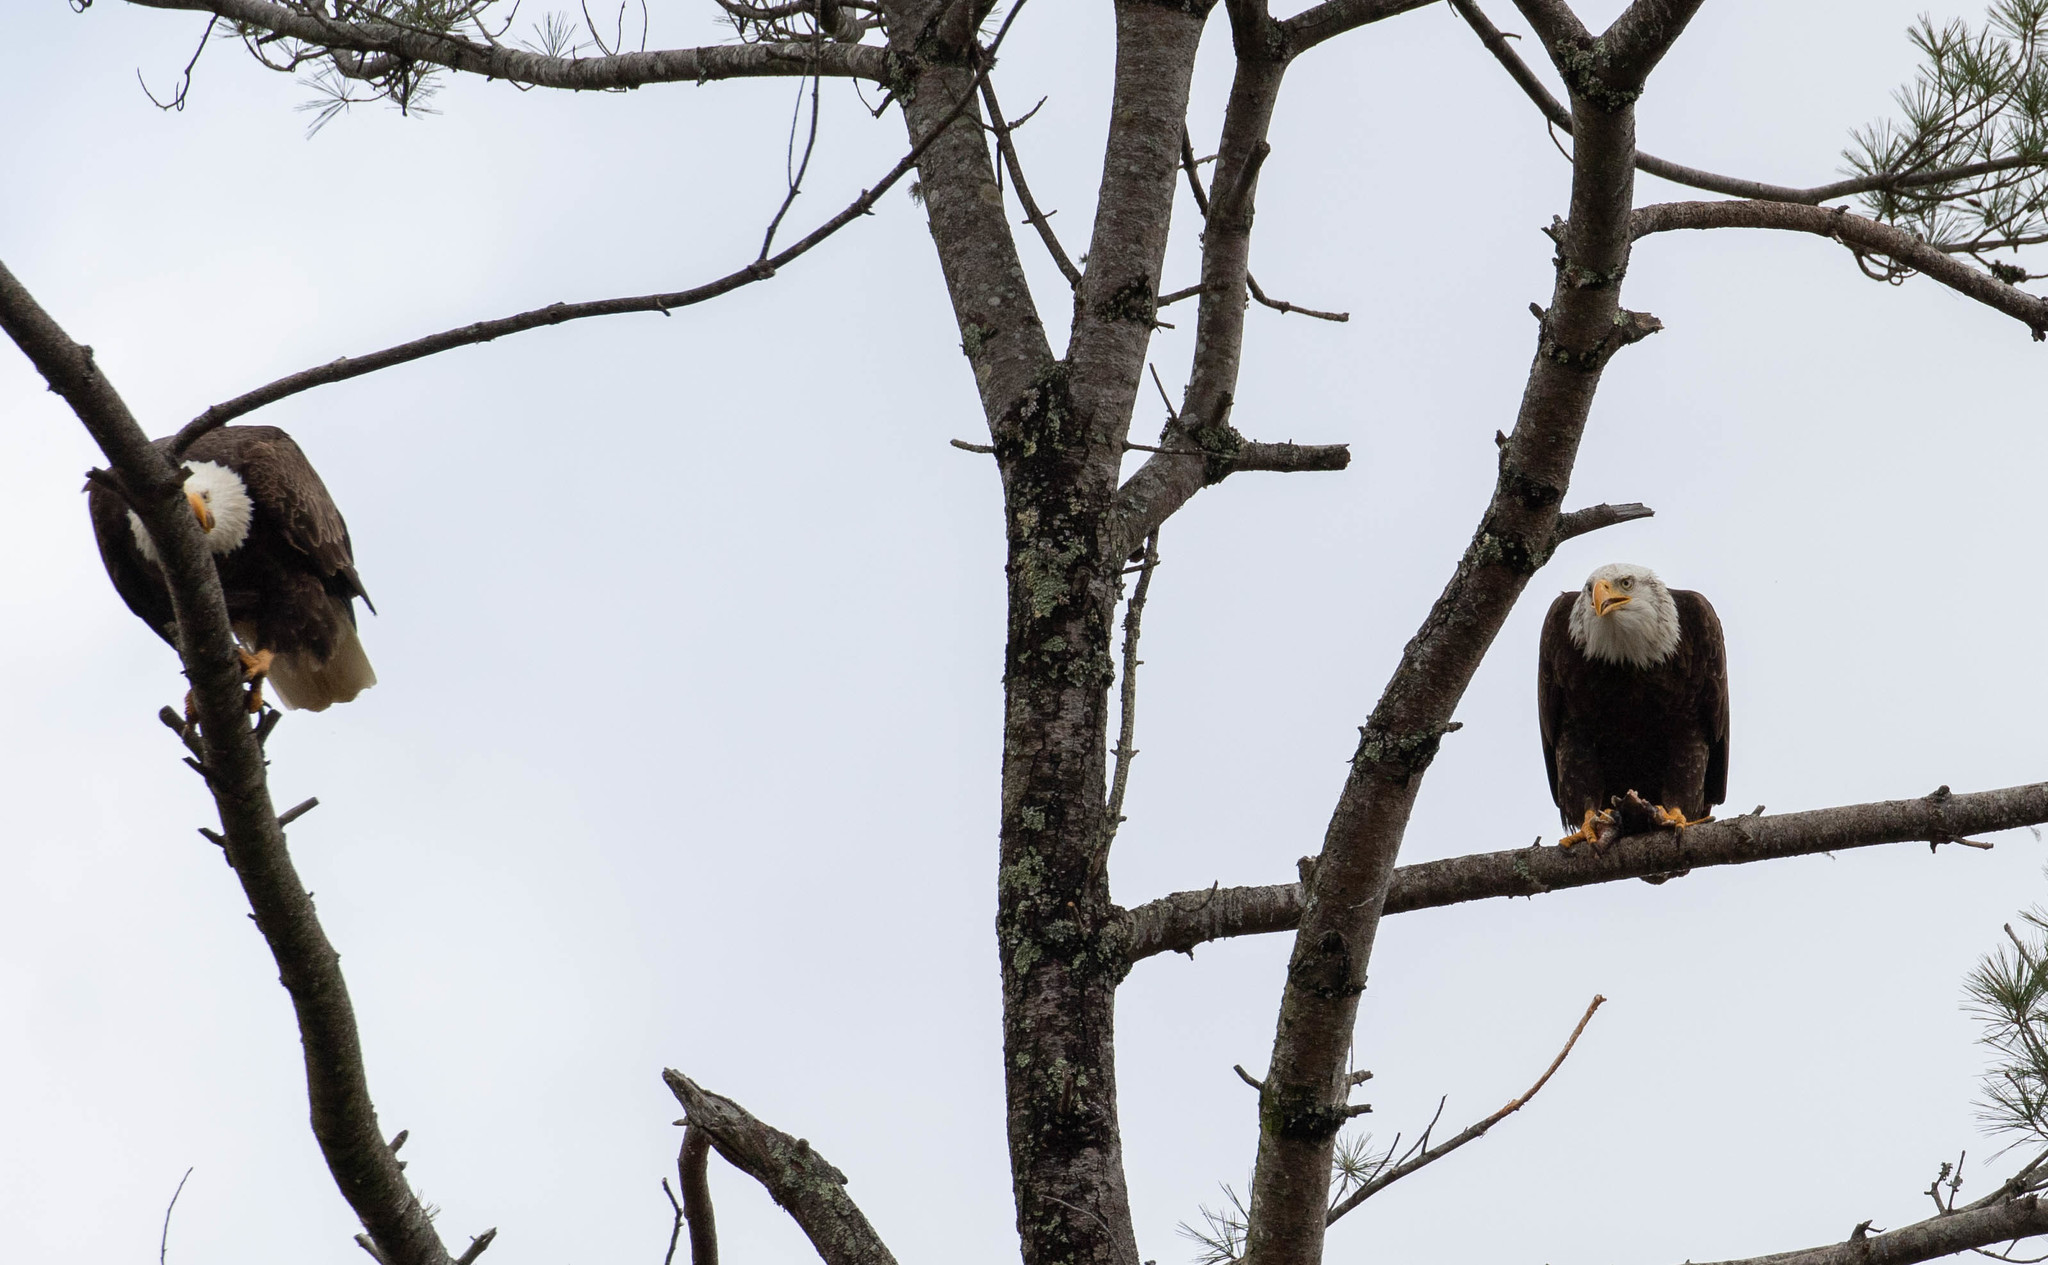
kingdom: Animalia
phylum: Chordata
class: Aves
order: Accipitriformes
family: Accipitridae
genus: Haliaeetus
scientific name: Haliaeetus leucocephalus
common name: Bald eagle
